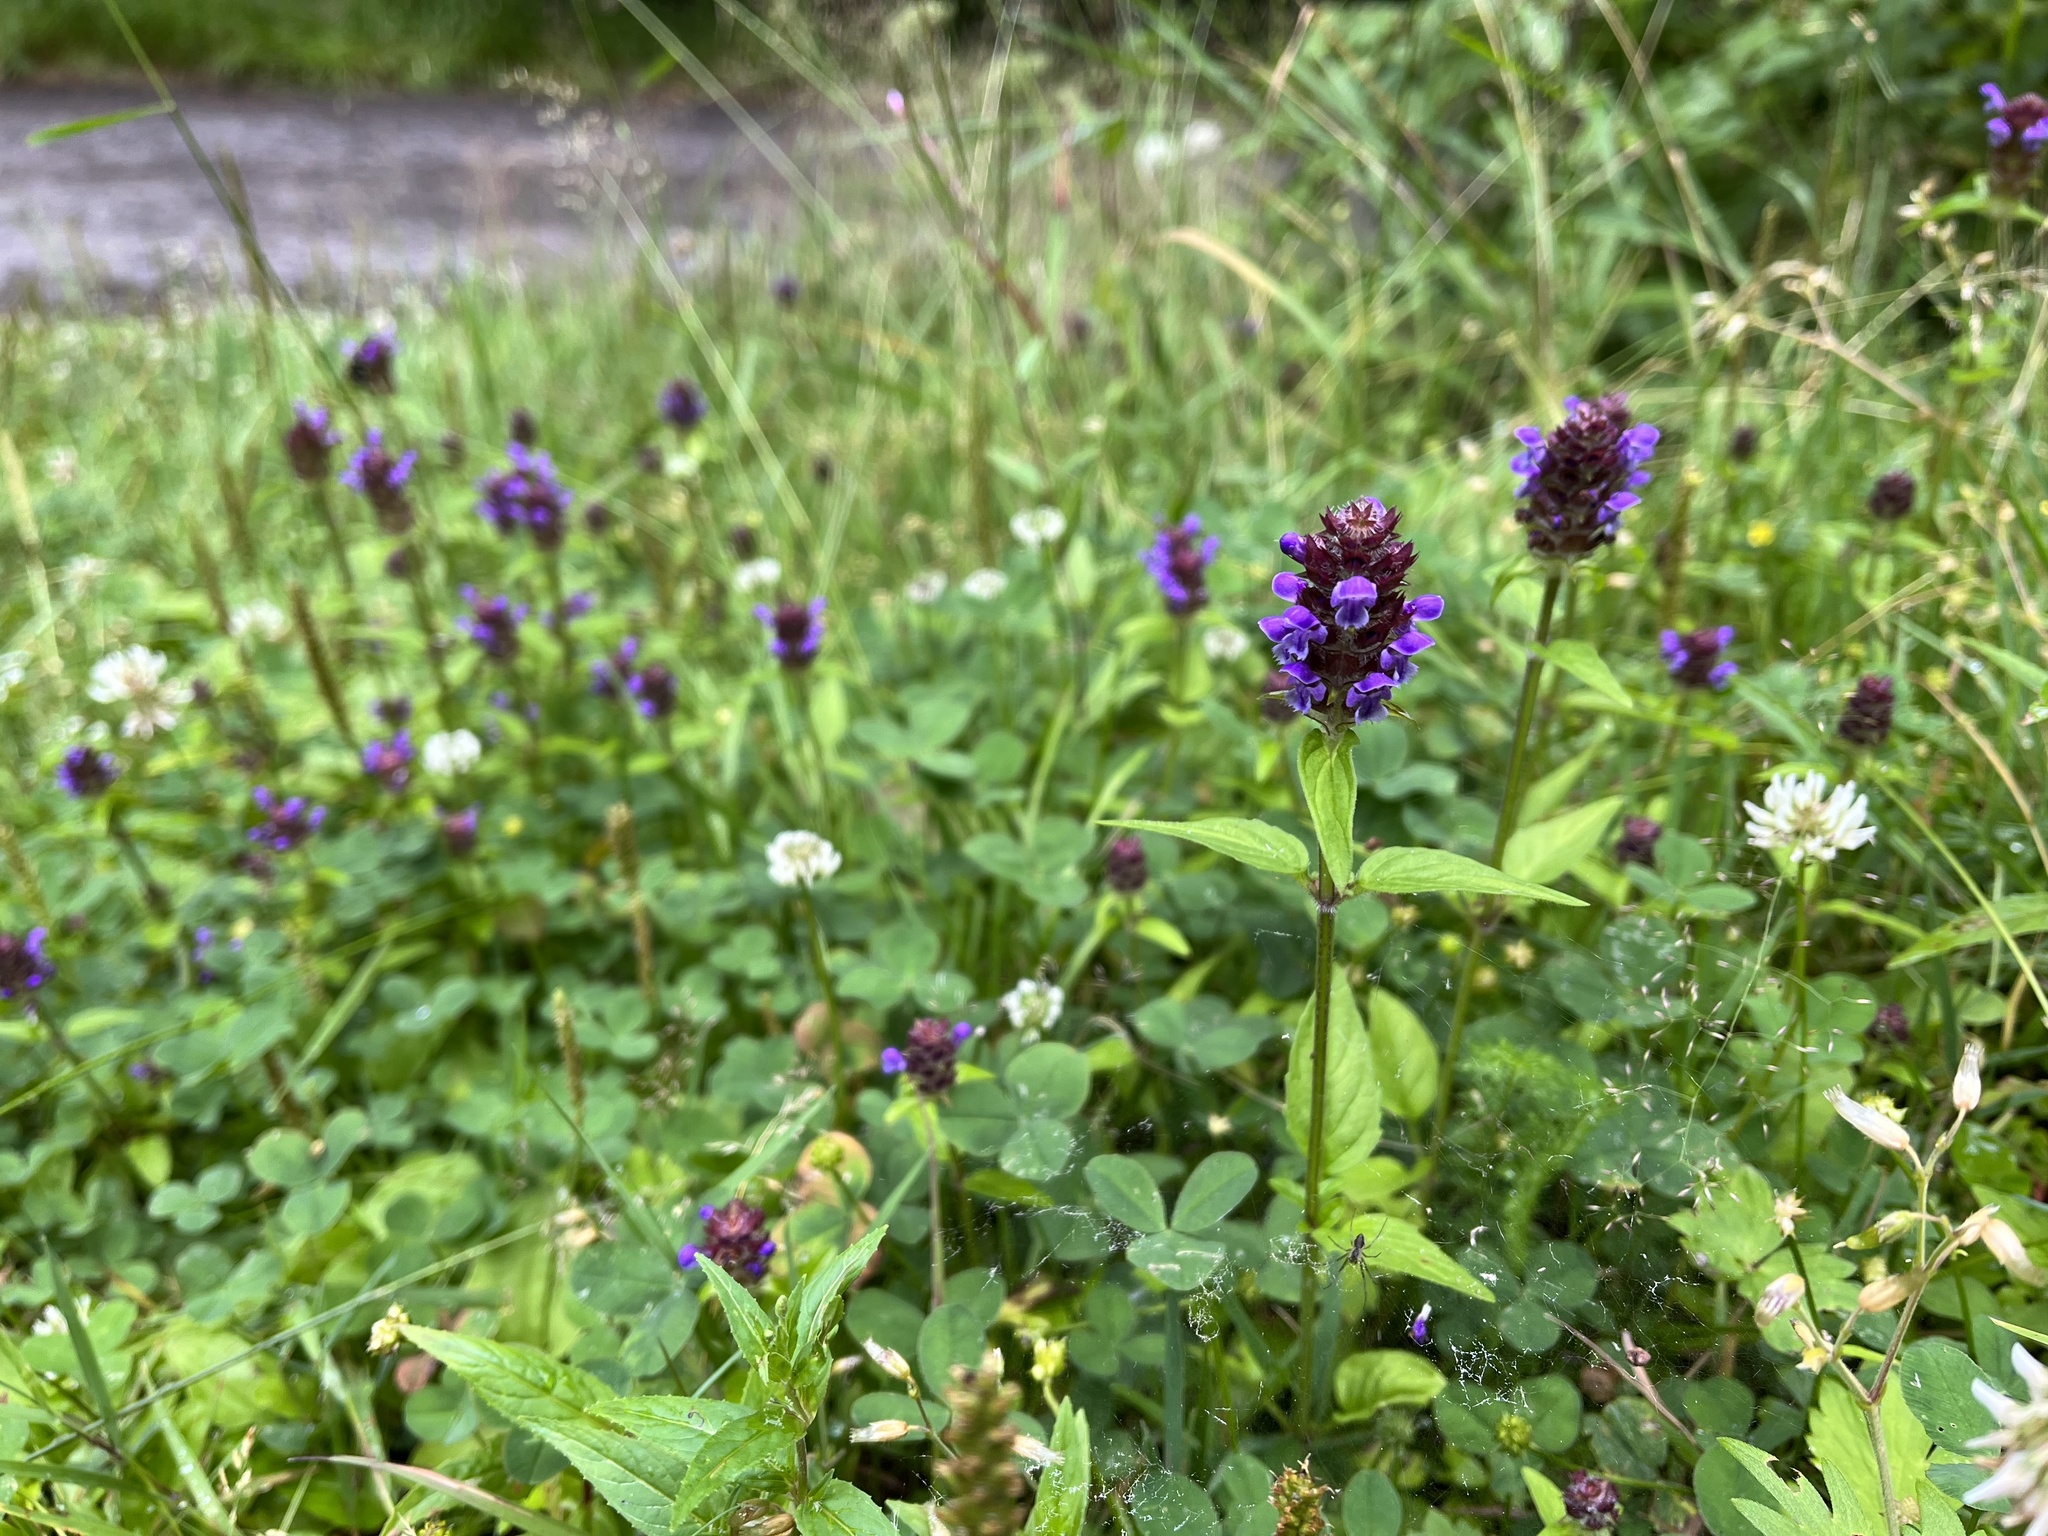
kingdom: Plantae
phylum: Tracheophyta
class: Magnoliopsida
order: Lamiales
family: Lamiaceae
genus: Prunella
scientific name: Prunella vulgaris
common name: Heal-all
